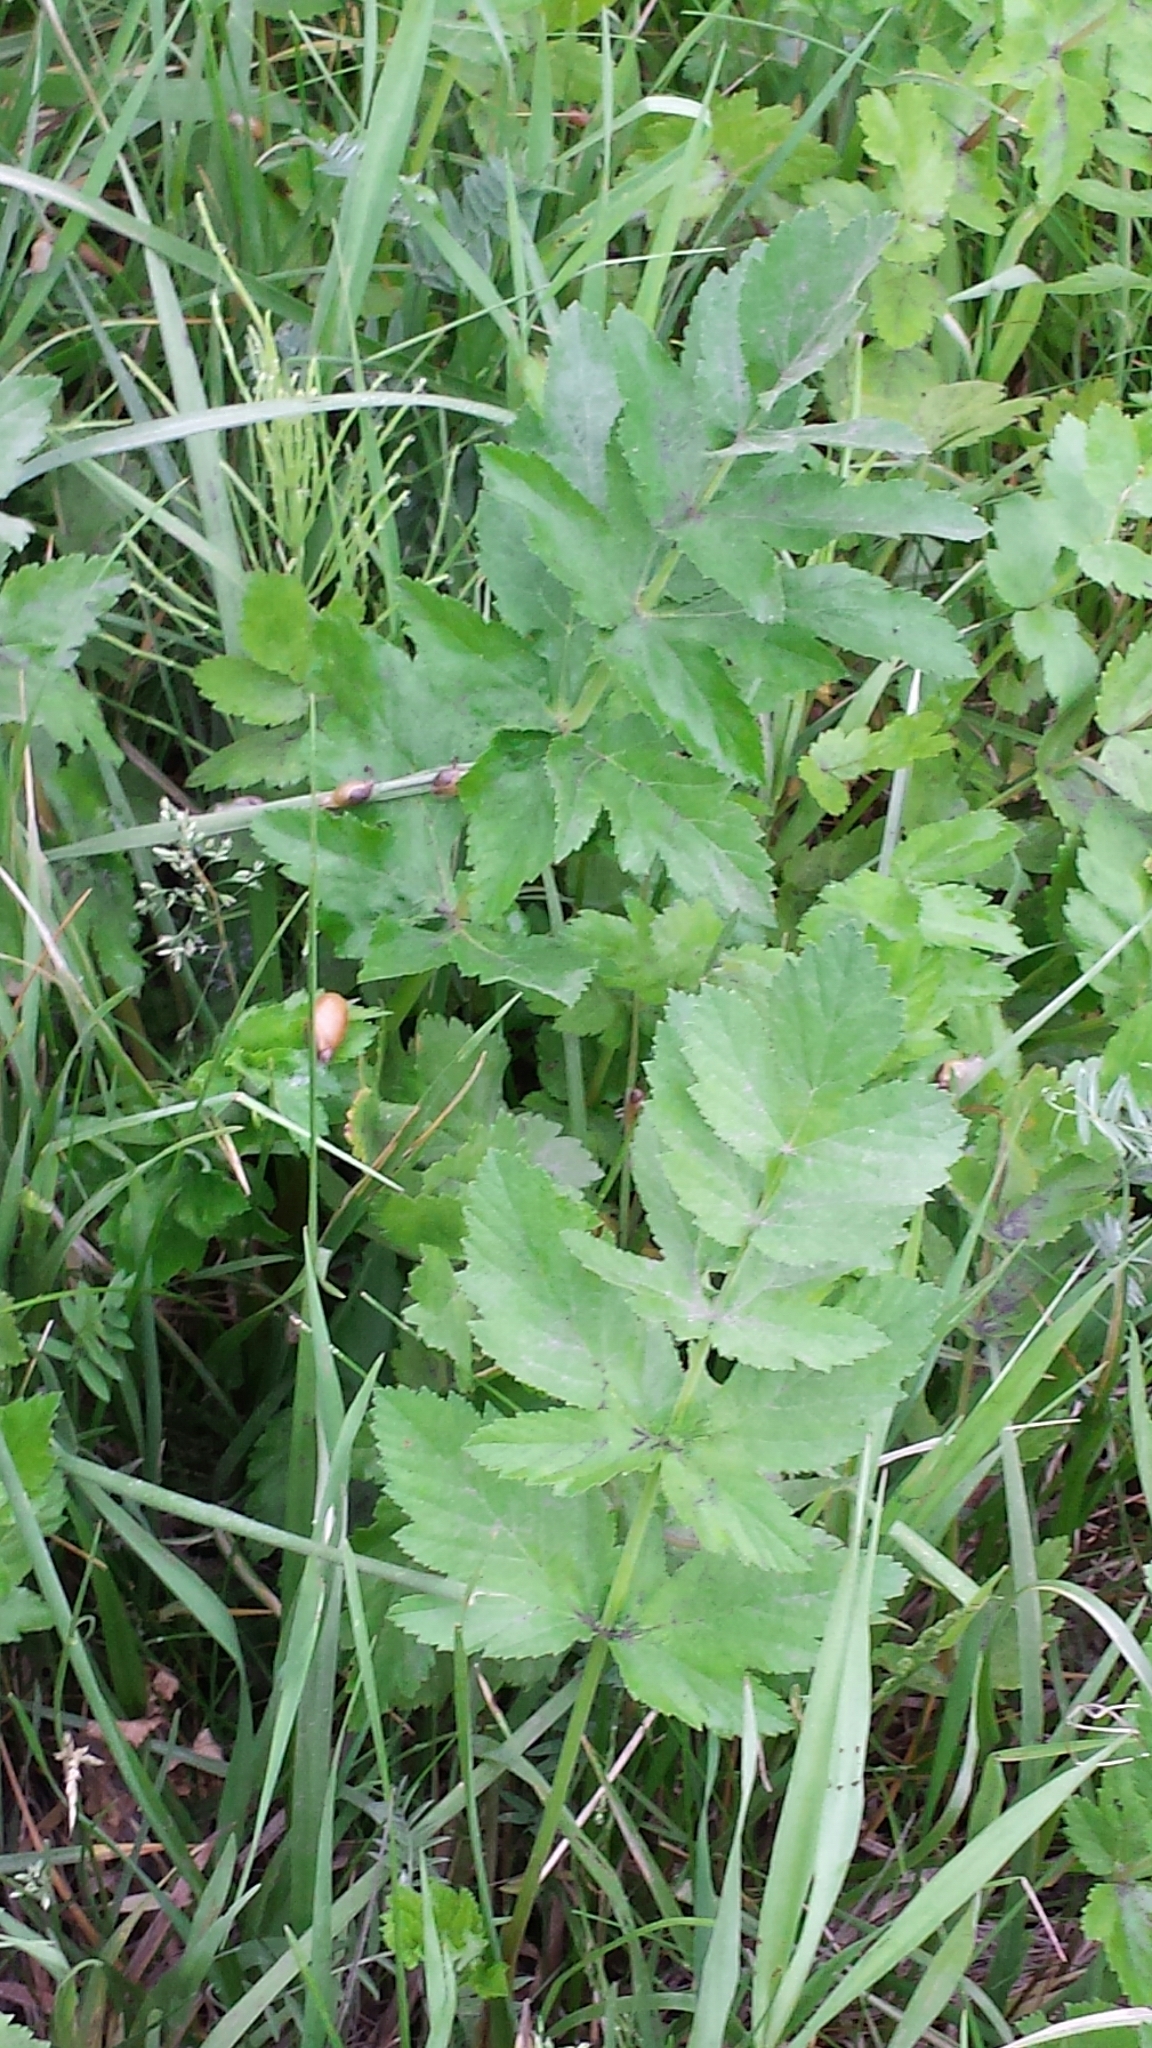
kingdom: Plantae
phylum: Tracheophyta
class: Magnoliopsida
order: Apiales
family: Apiaceae
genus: Pastinaca
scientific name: Pastinaca sativa
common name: Wild parsnip
